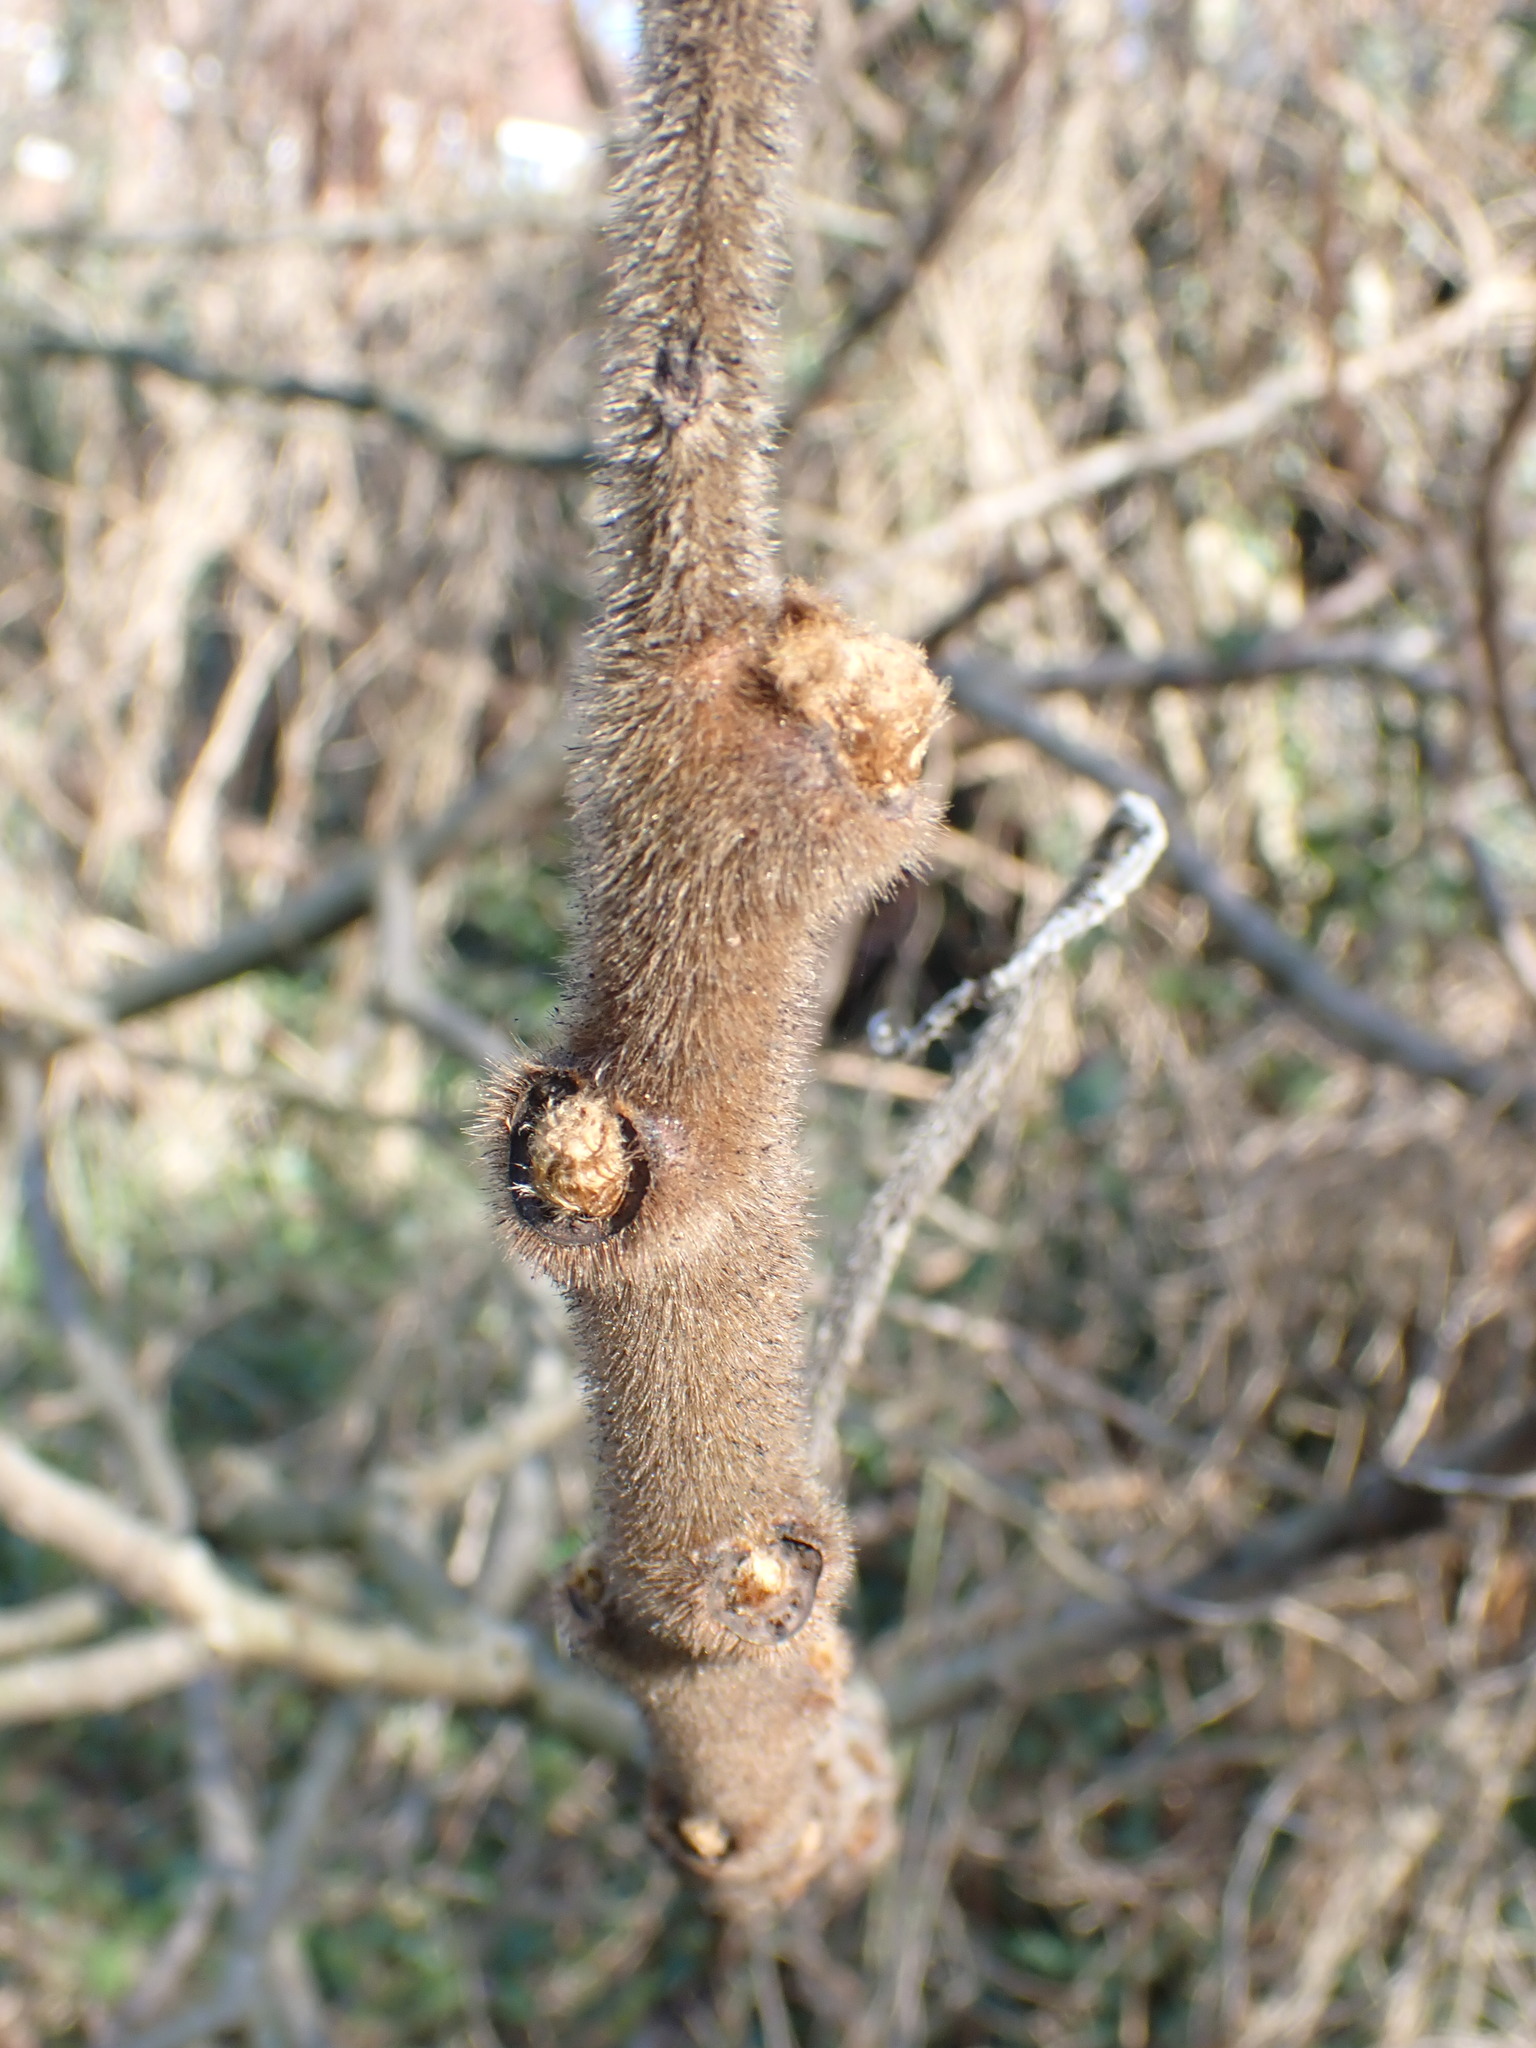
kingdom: Plantae
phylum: Tracheophyta
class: Magnoliopsida
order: Sapindales
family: Anacardiaceae
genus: Rhus
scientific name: Rhus typhina
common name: Staghorn sumac
